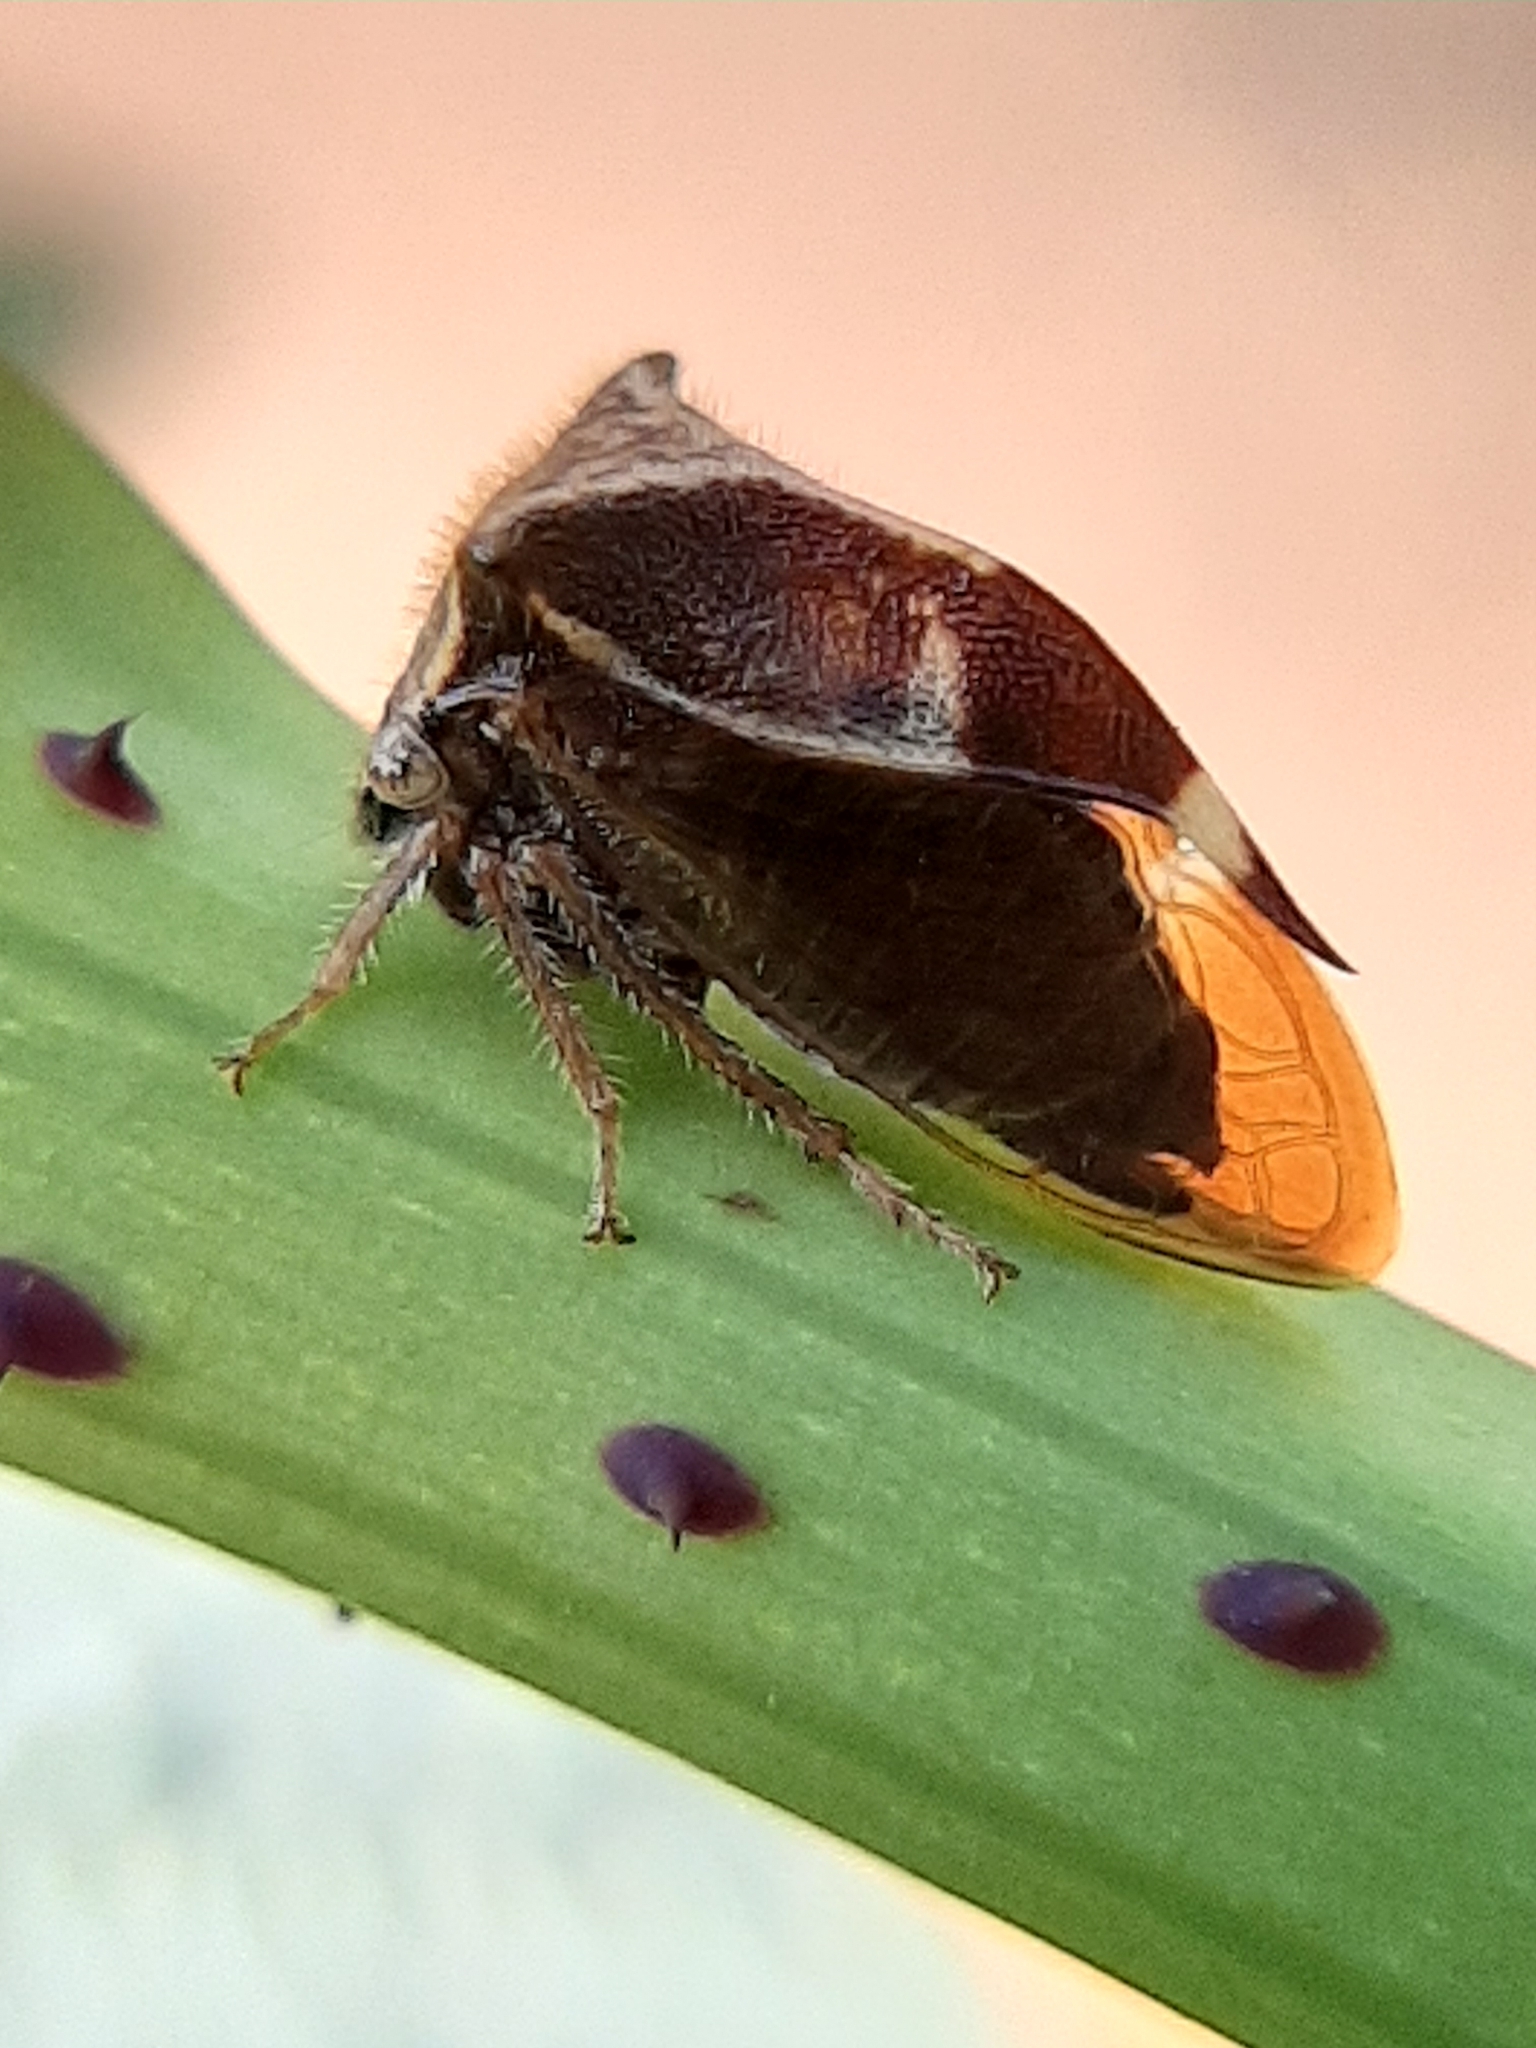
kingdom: Animalia
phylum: Arthropoda
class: Insecta
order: Hemiptera
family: Membracidae
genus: Stictocephala
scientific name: Stictocephala diceros
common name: Two-horned treehopper
